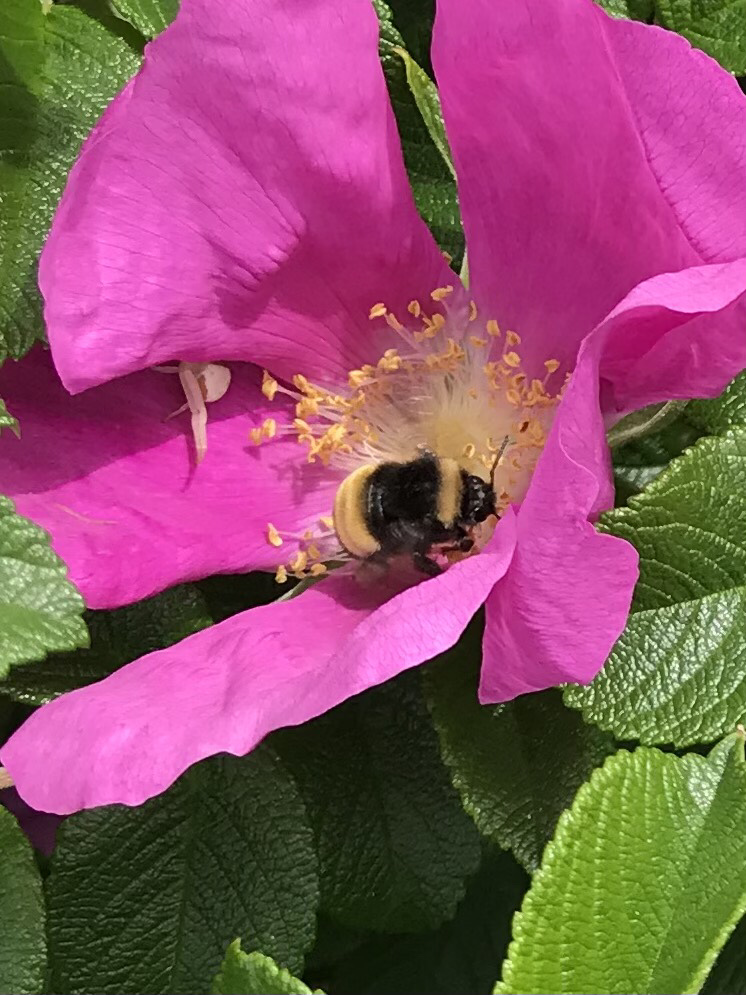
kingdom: Animalia
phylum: Arthropoda
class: Insecta
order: Hymenoptera
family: Apidae
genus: Bombus
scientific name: Bombus terricola
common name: Yellow-banded bumble bee
